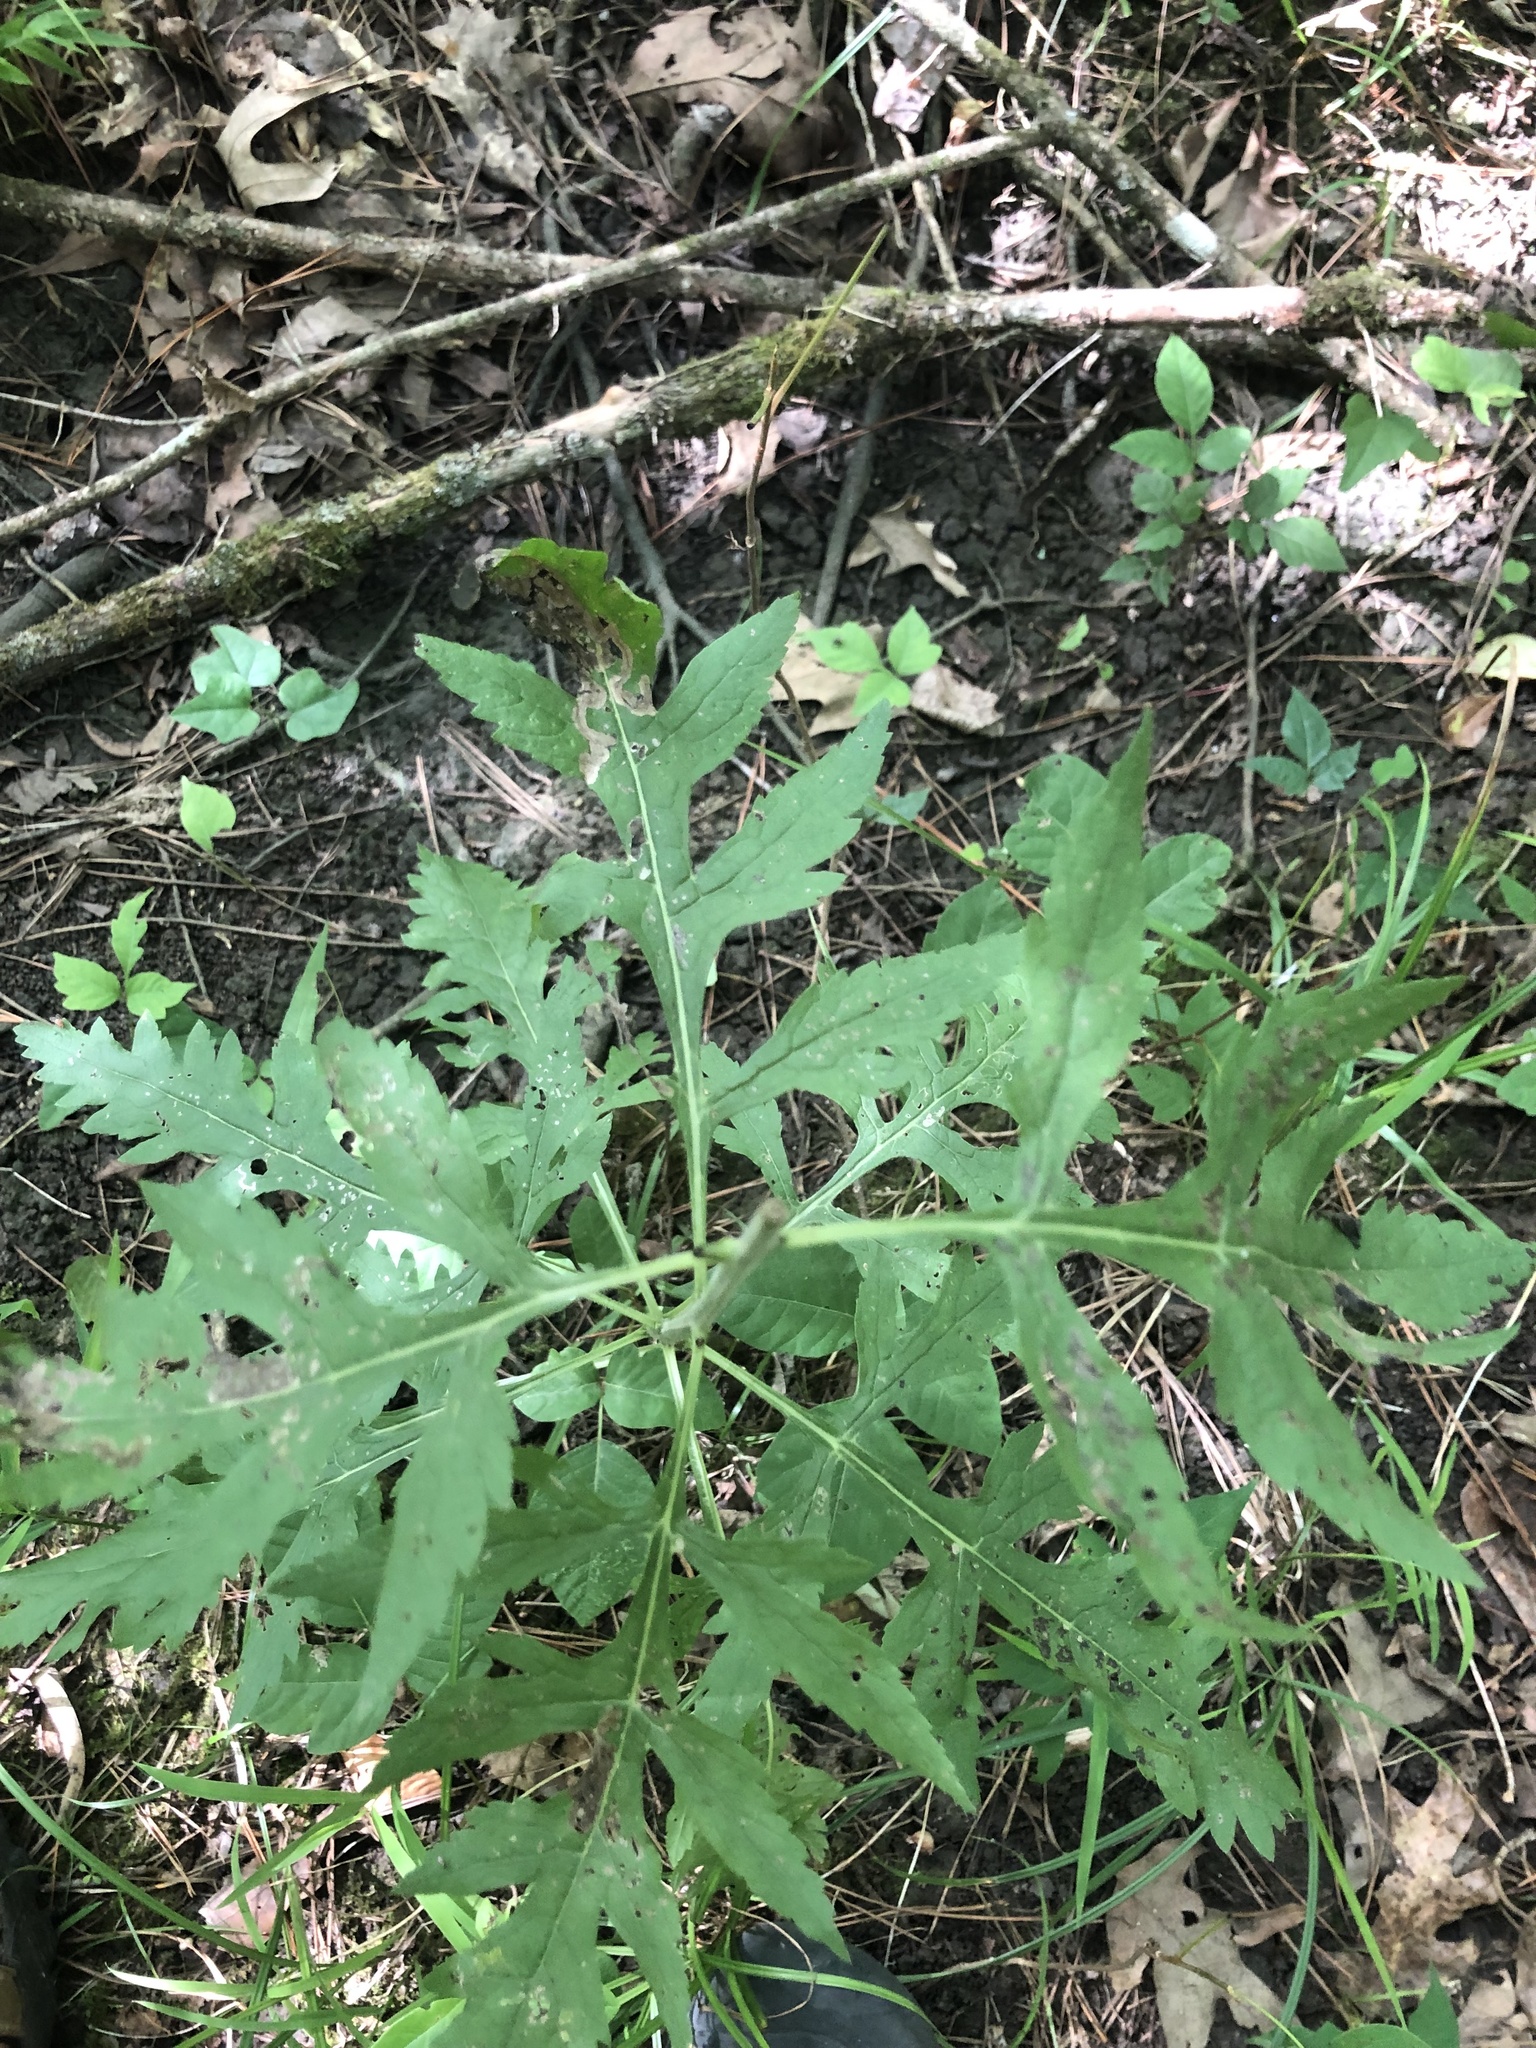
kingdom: Plantae
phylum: Tracheophyta
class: Magnoliopsida
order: Lamiales
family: Orobanchaceae
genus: Dasistoma
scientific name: Dasistoma macrophyllum
